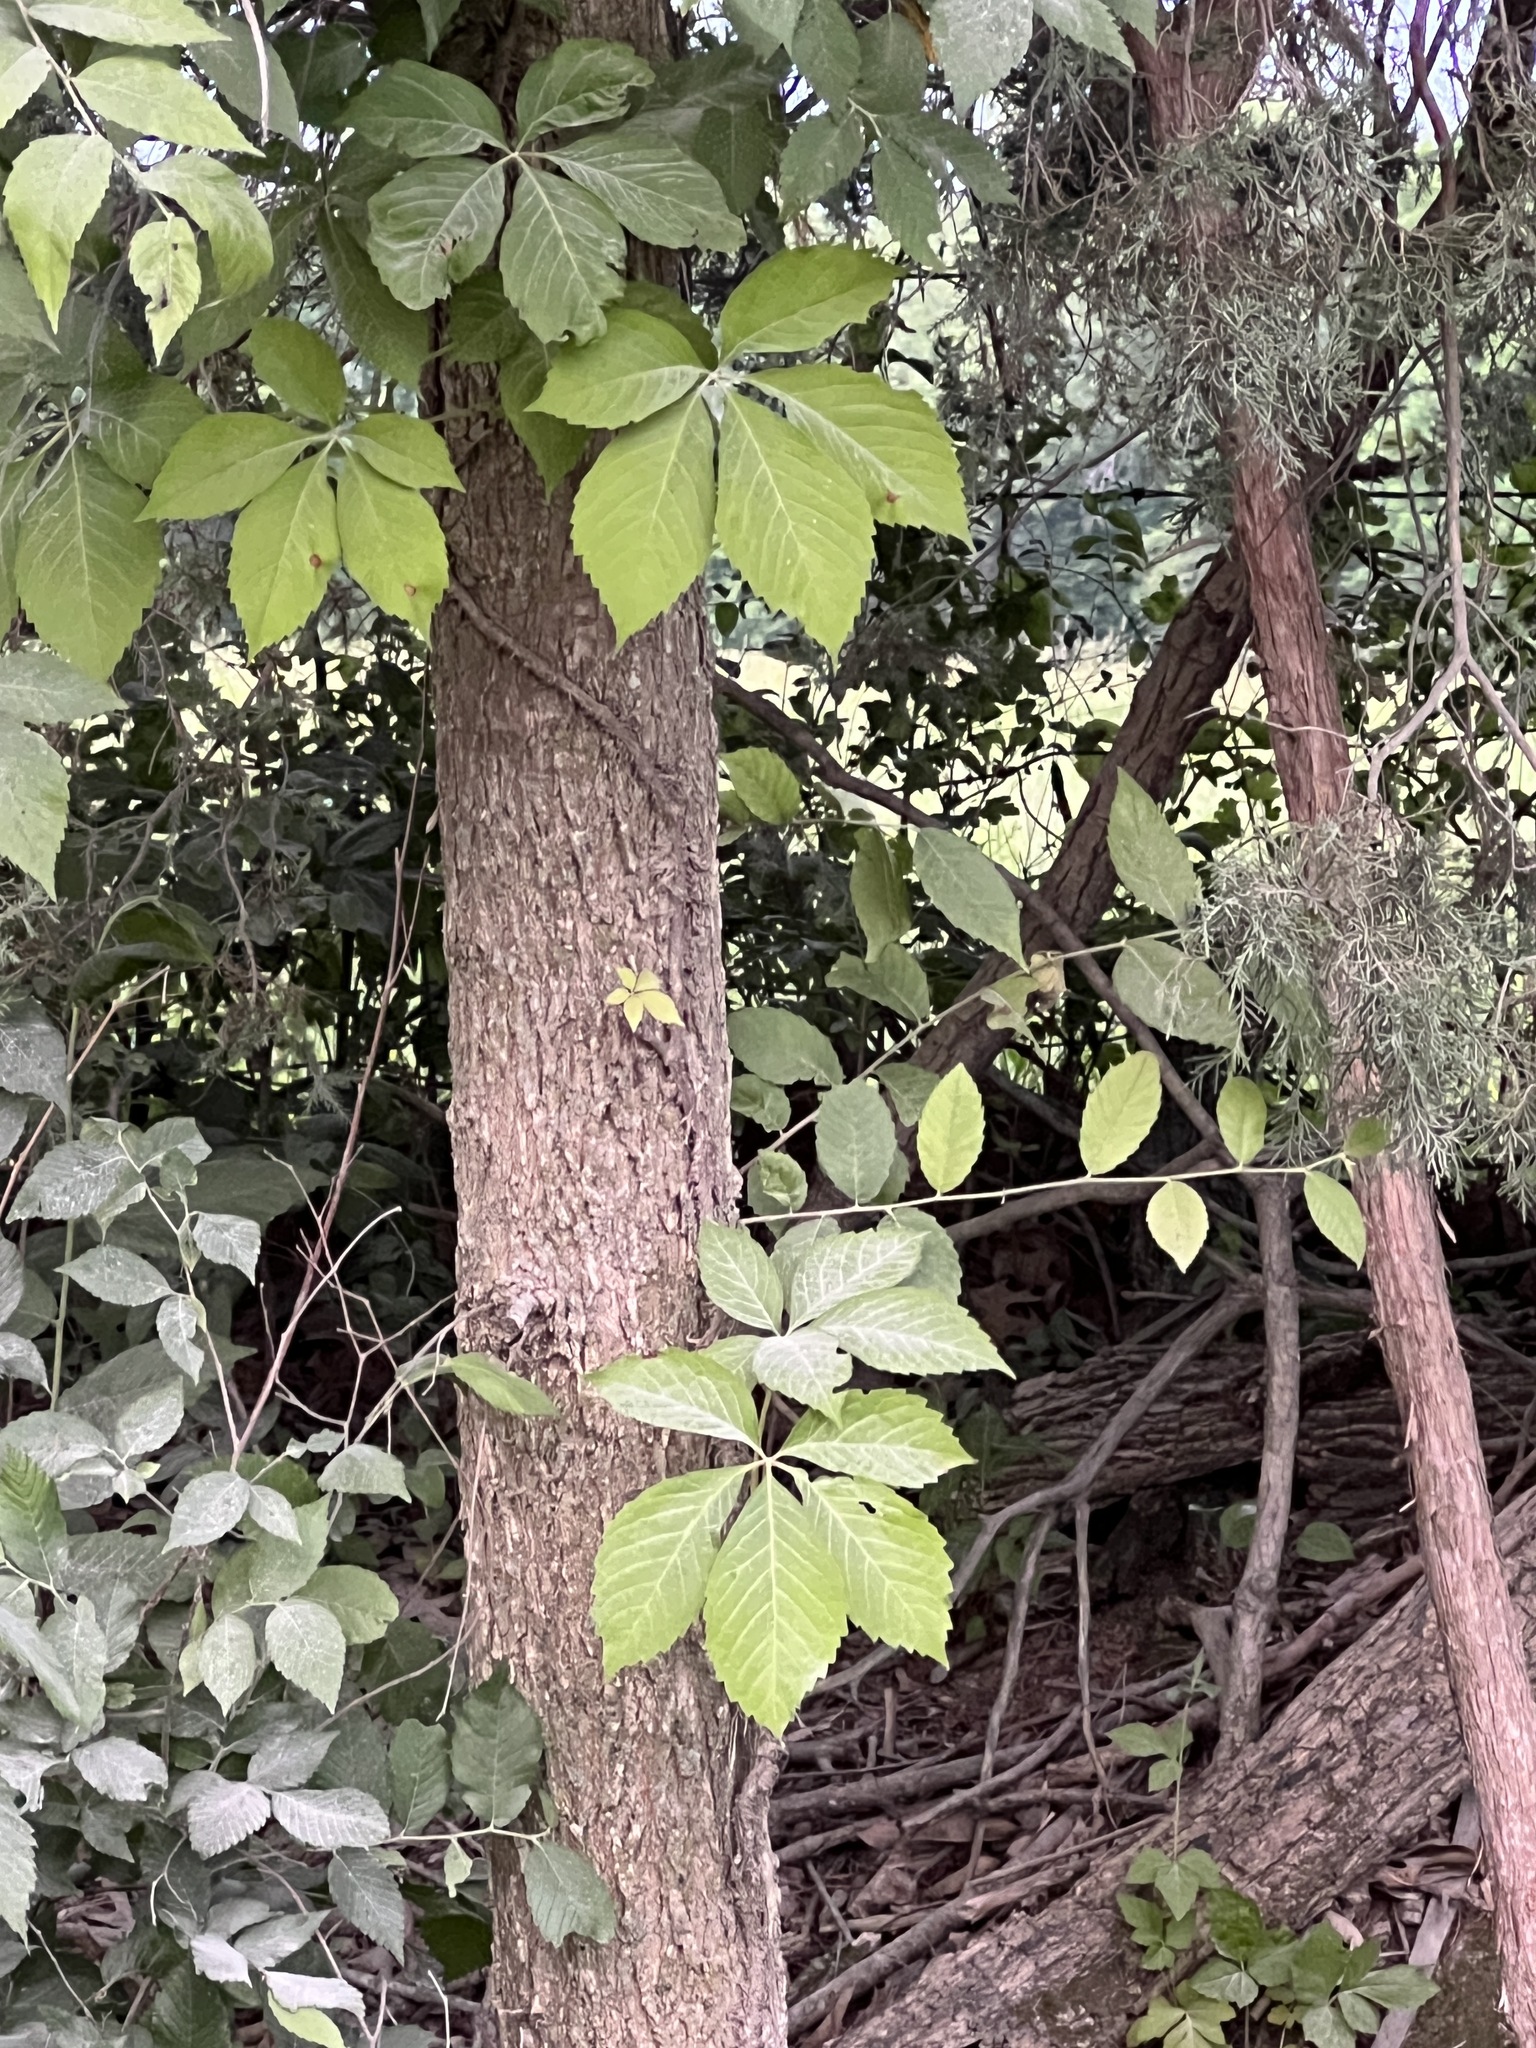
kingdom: Plantae
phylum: Tracheophyta
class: Magnoliopsida
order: Vitales
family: Vitaceae
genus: Parthenocissus
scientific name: Parthenocissus quinquefolia
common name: Virginia-creeper
